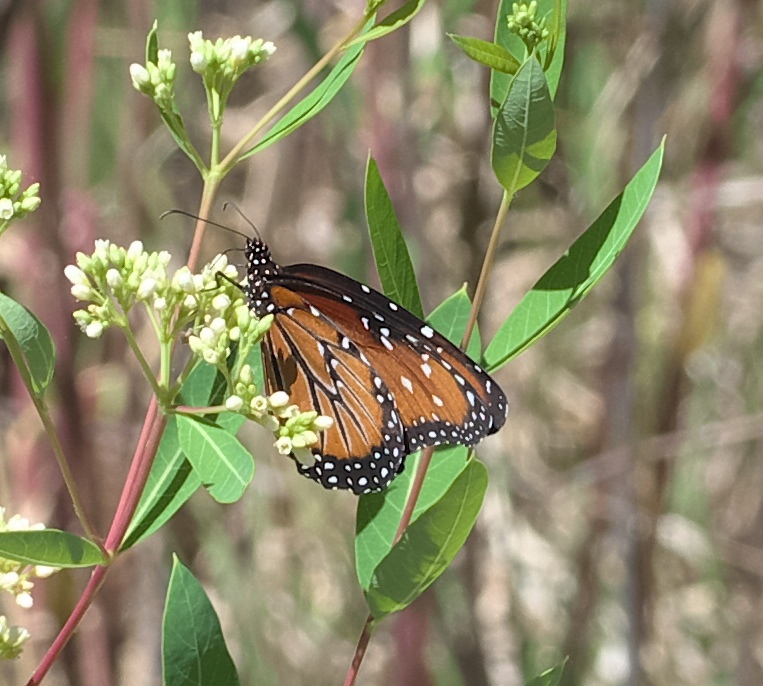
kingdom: Animalia
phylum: Arthropoda
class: Insecta
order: Lepidoptera
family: Nymphalidae
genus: Danaus
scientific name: Danaus gilippus
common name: Queen
